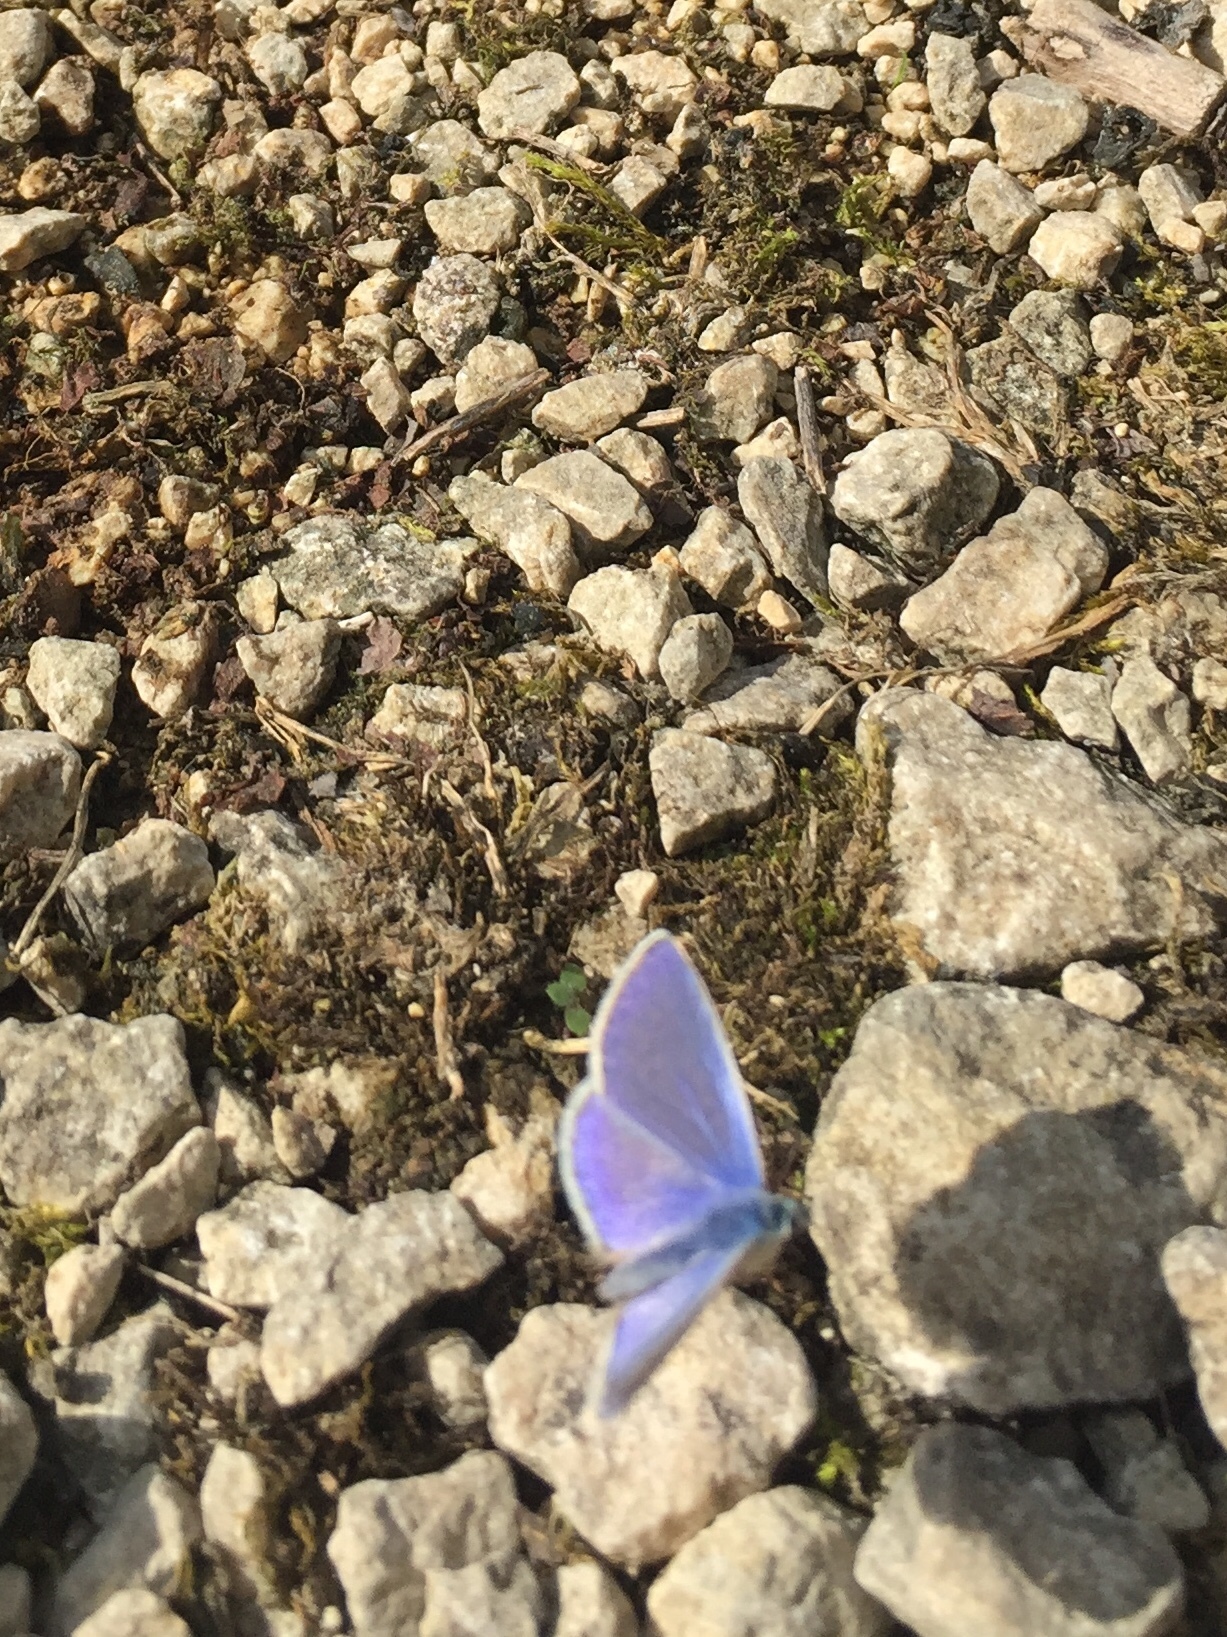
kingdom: Animalia
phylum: Arthropoda
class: Insecta
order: Lepidoptera
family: Lycaenidae
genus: Polyommatus
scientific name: Polyommatus icarus
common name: Common blue
